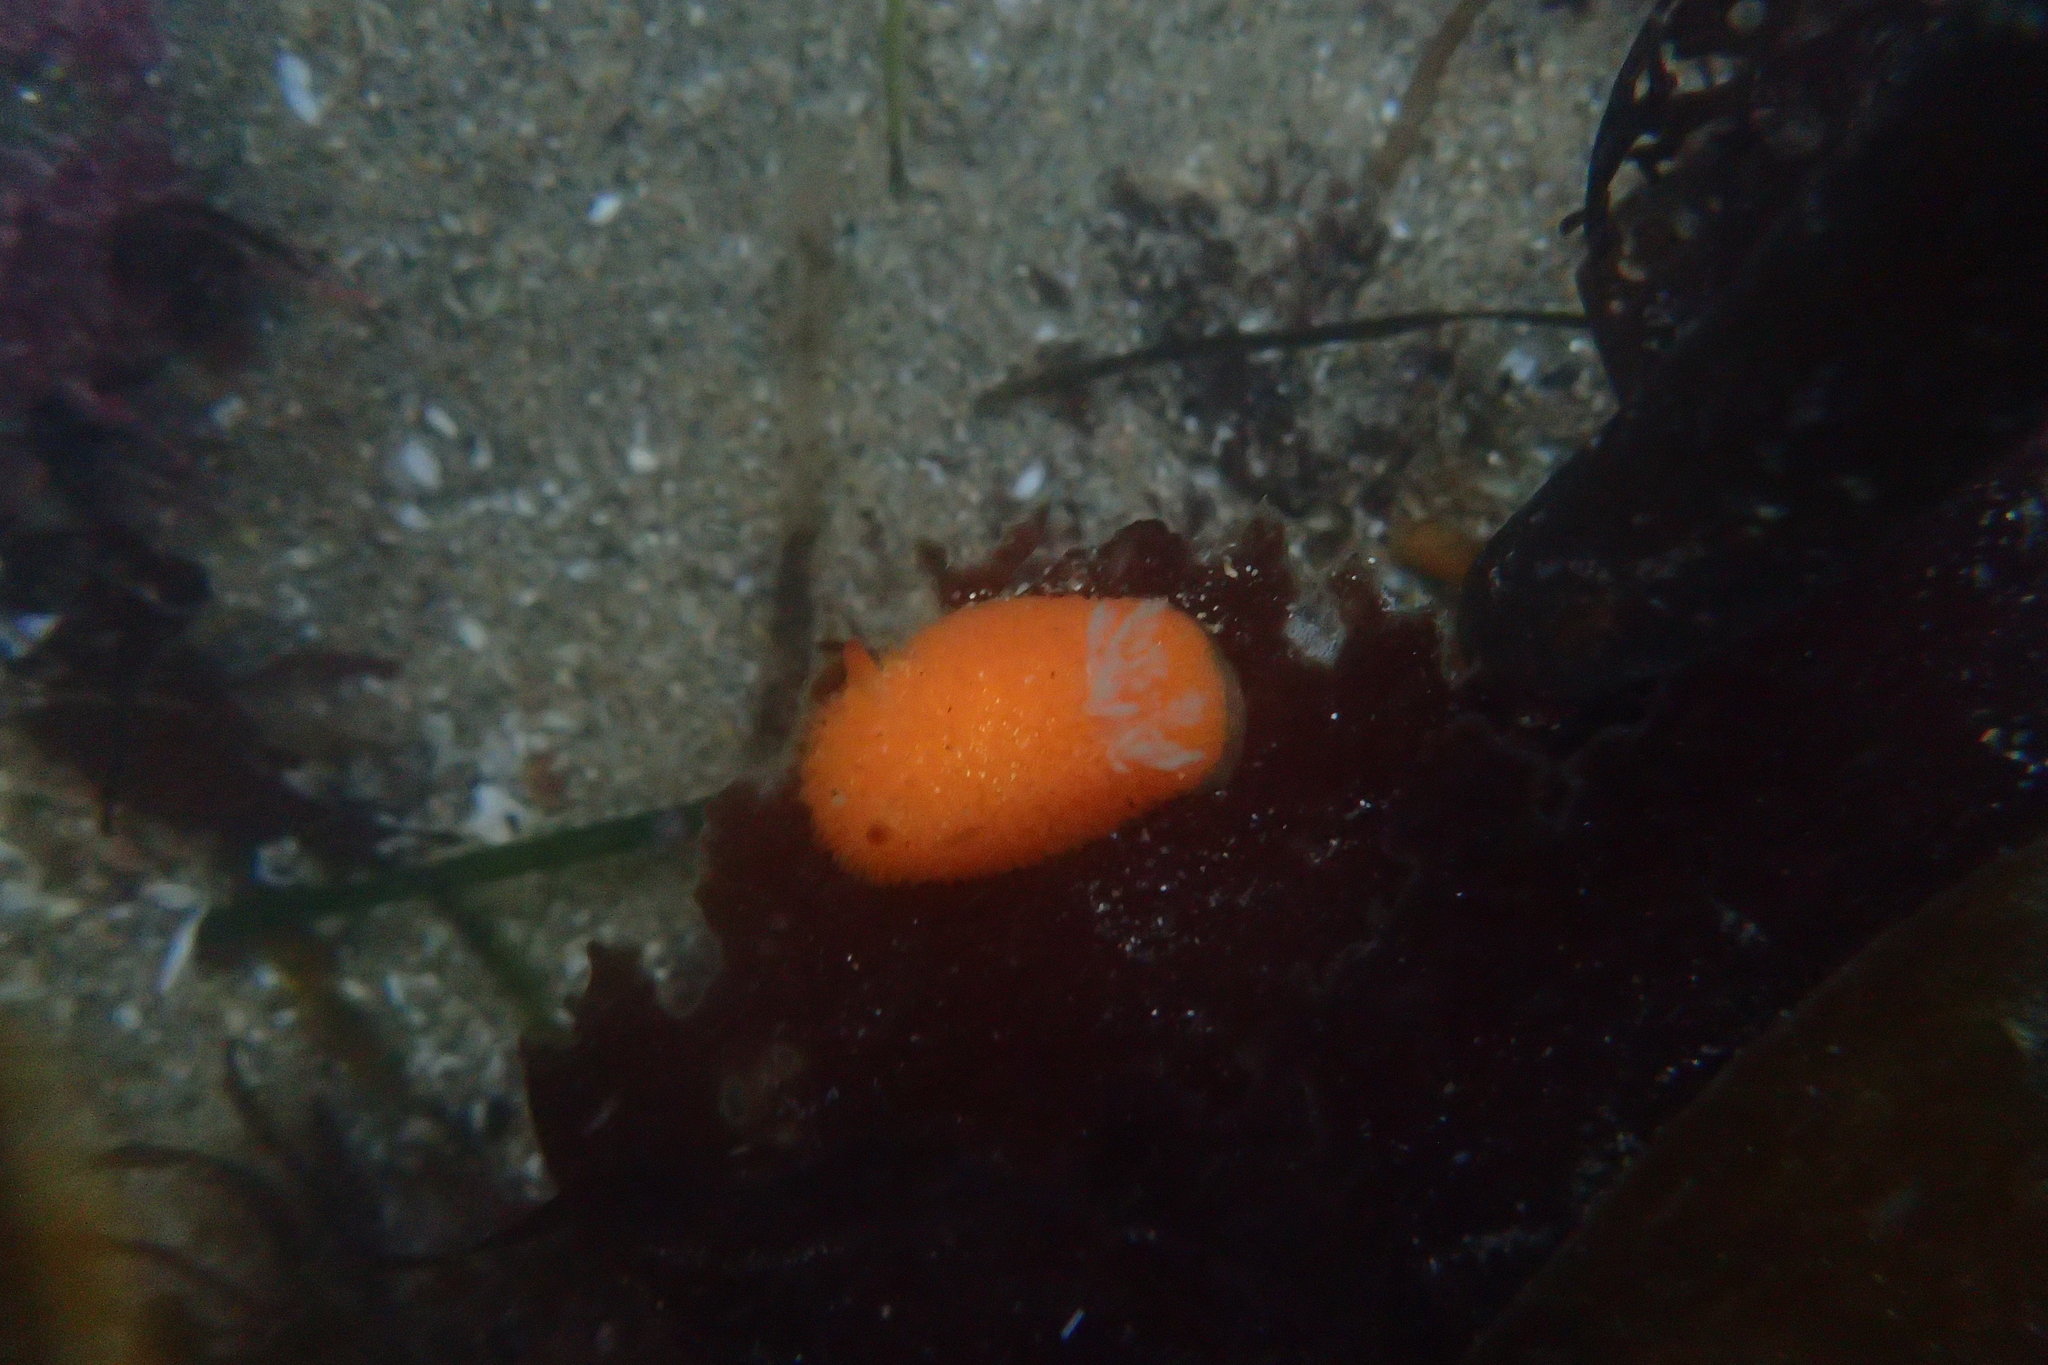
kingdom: Animalia
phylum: Mollusca
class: Gastropoda
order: Nudibranchia
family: Onchidorididae
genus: Acanthodoris
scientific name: Acanthodoris lutea
